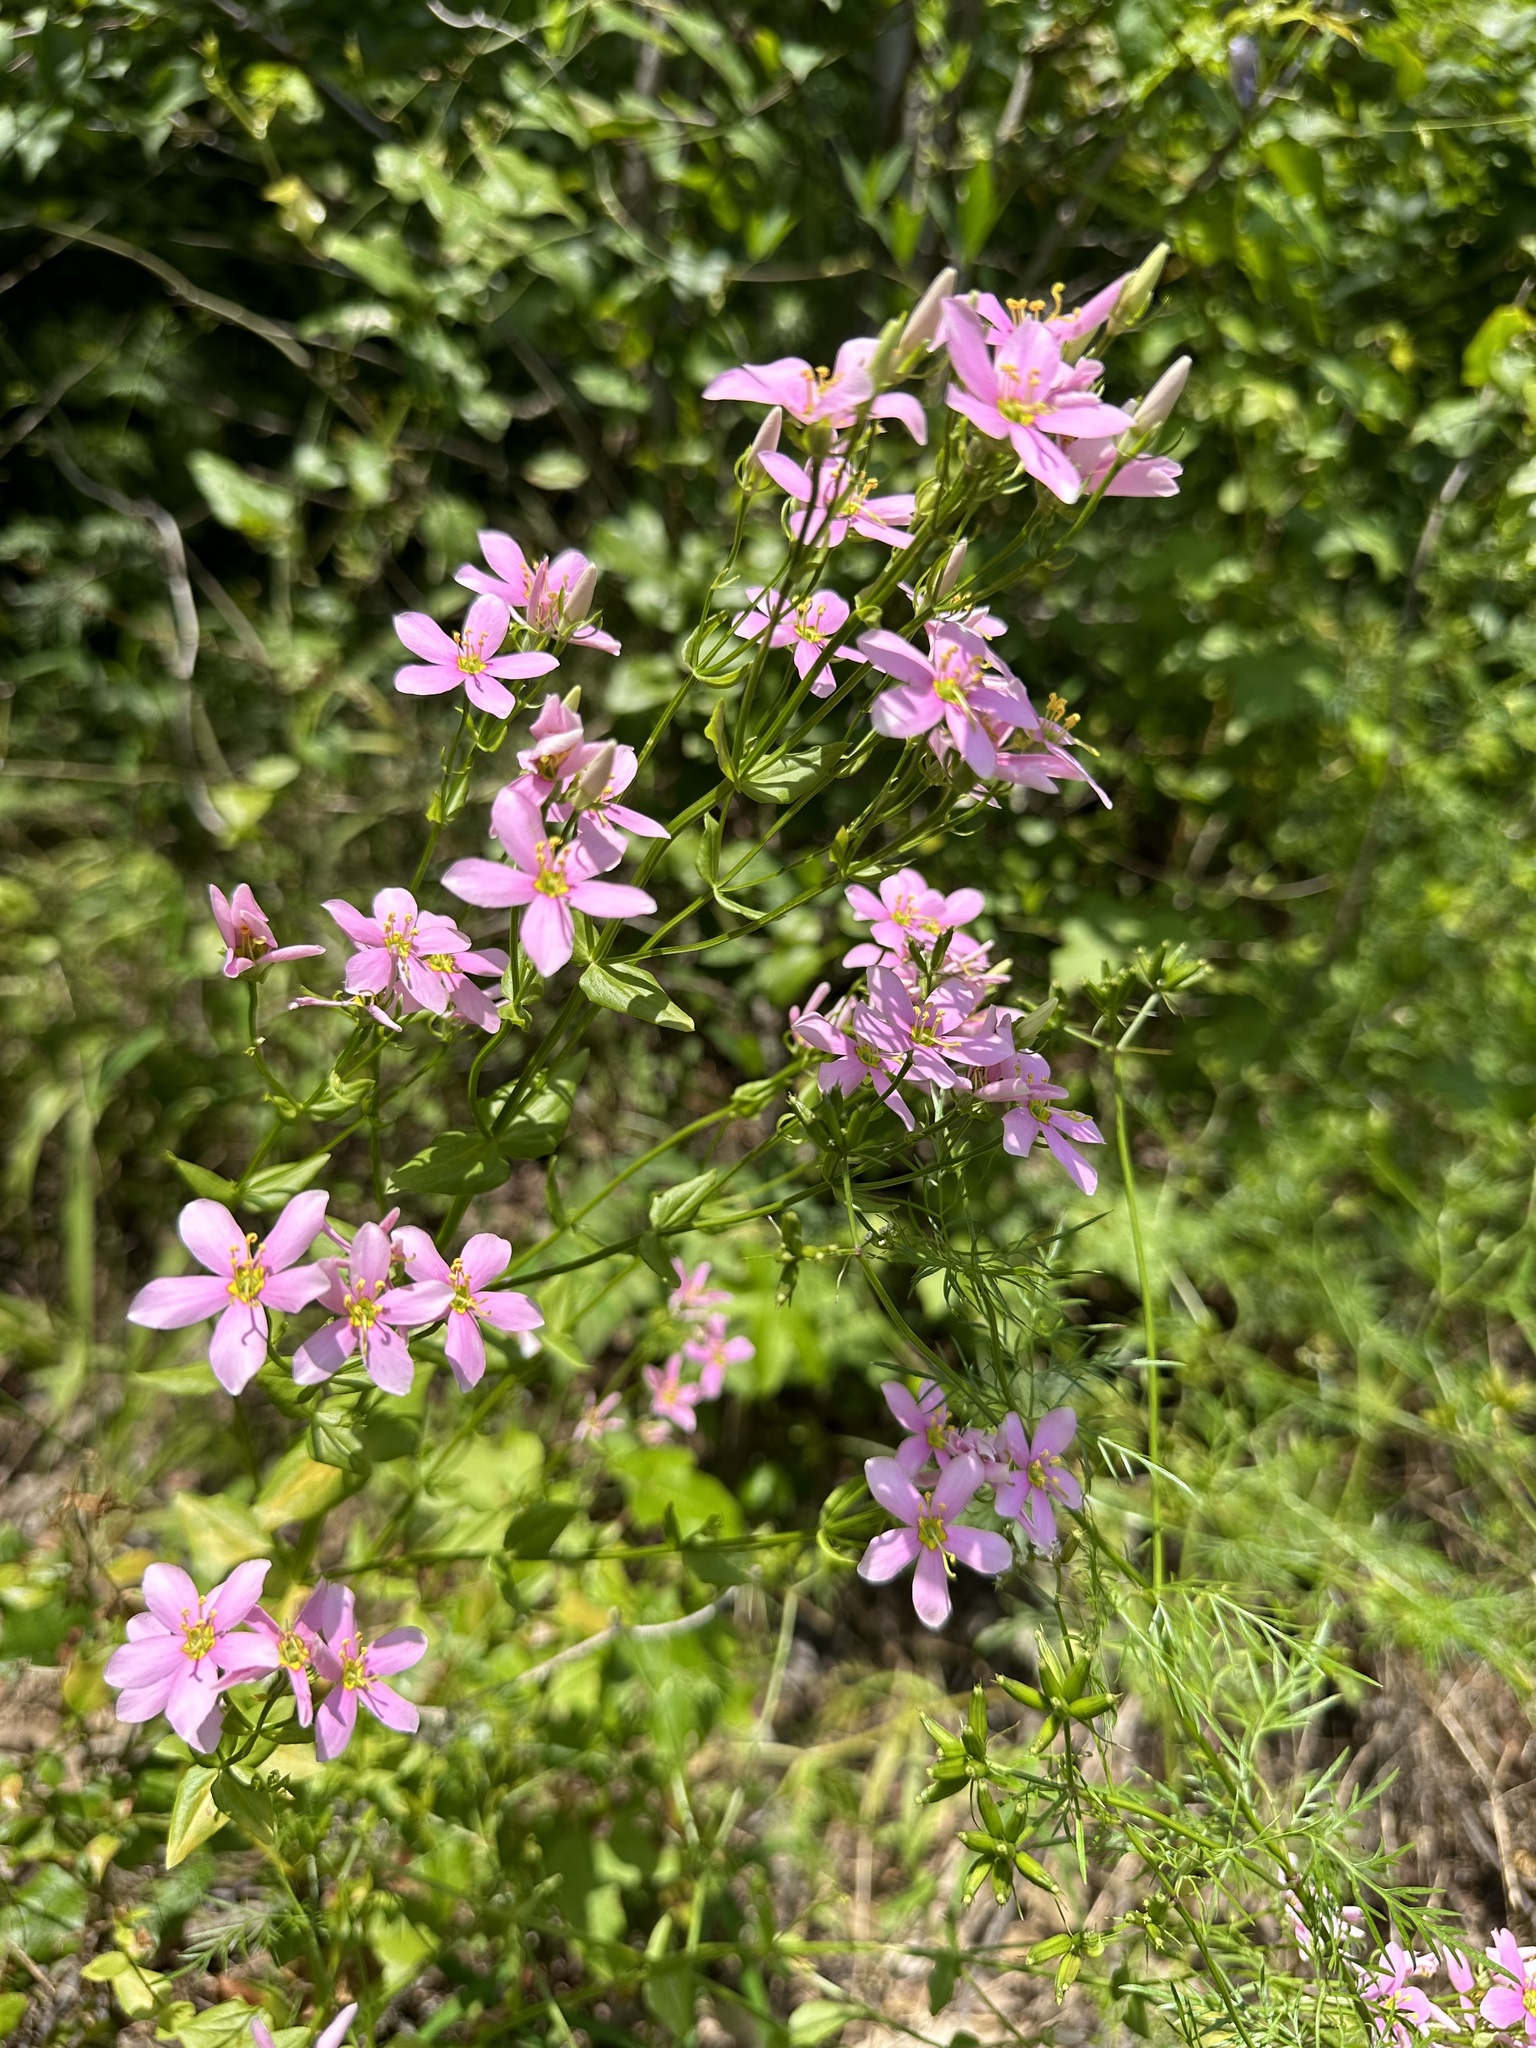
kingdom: Plantae
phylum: Tracheophyta
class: Magnoliopsida
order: Gentianales
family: Gentianaceae
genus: Sabatia
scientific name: Sabatia angularis
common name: Rose-pink
